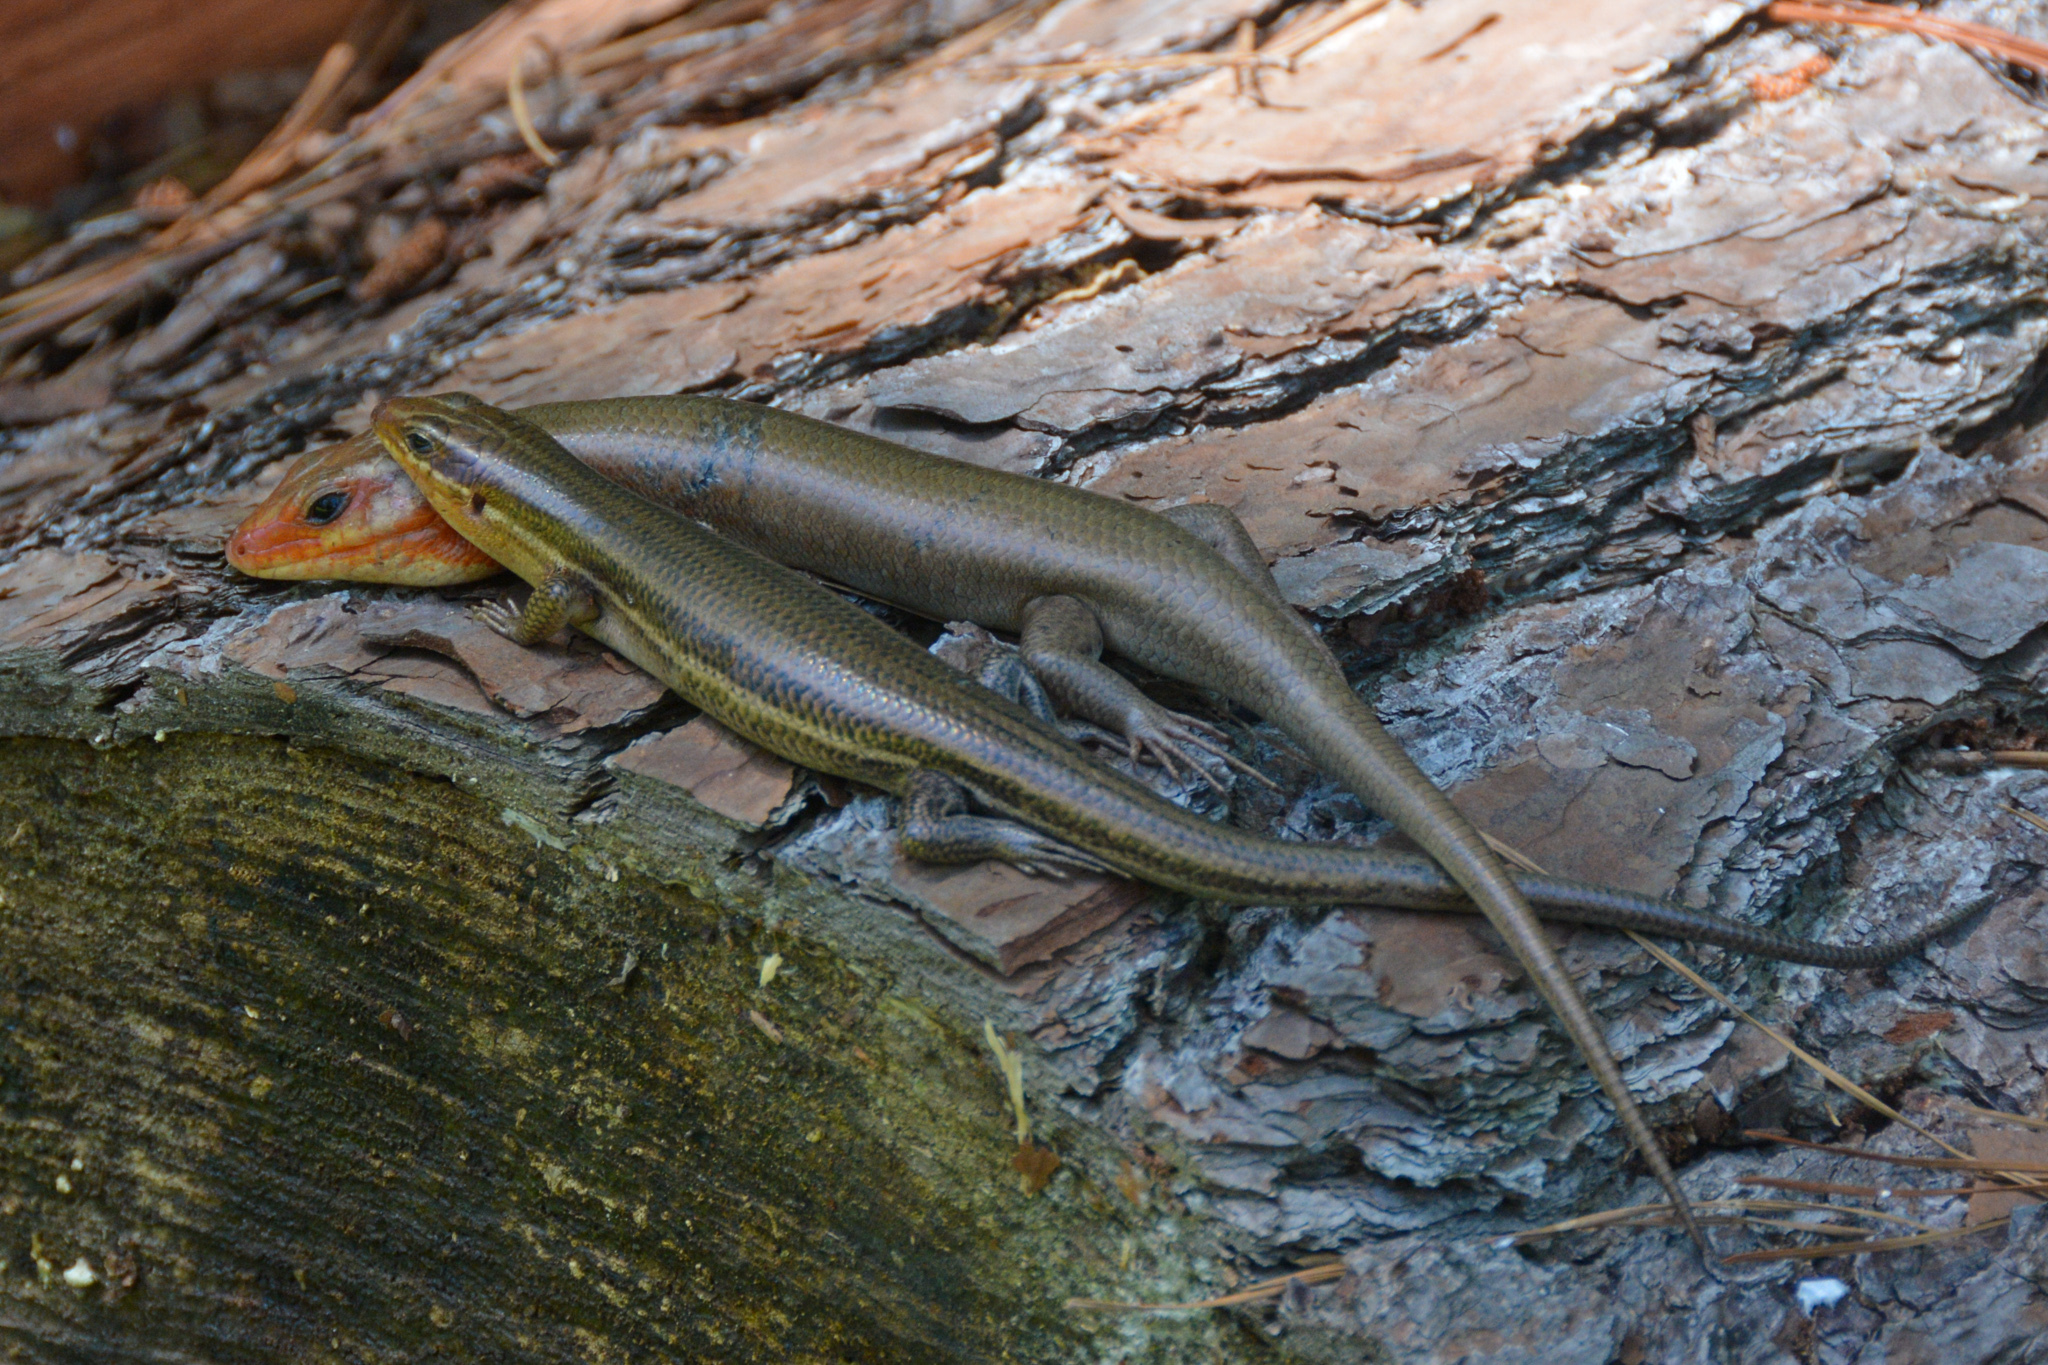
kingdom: Animalia
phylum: Chordata
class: Squamata
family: Scincidae
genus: Plestiodon
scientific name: Plestiodon laticeps
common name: Broadhead skink
